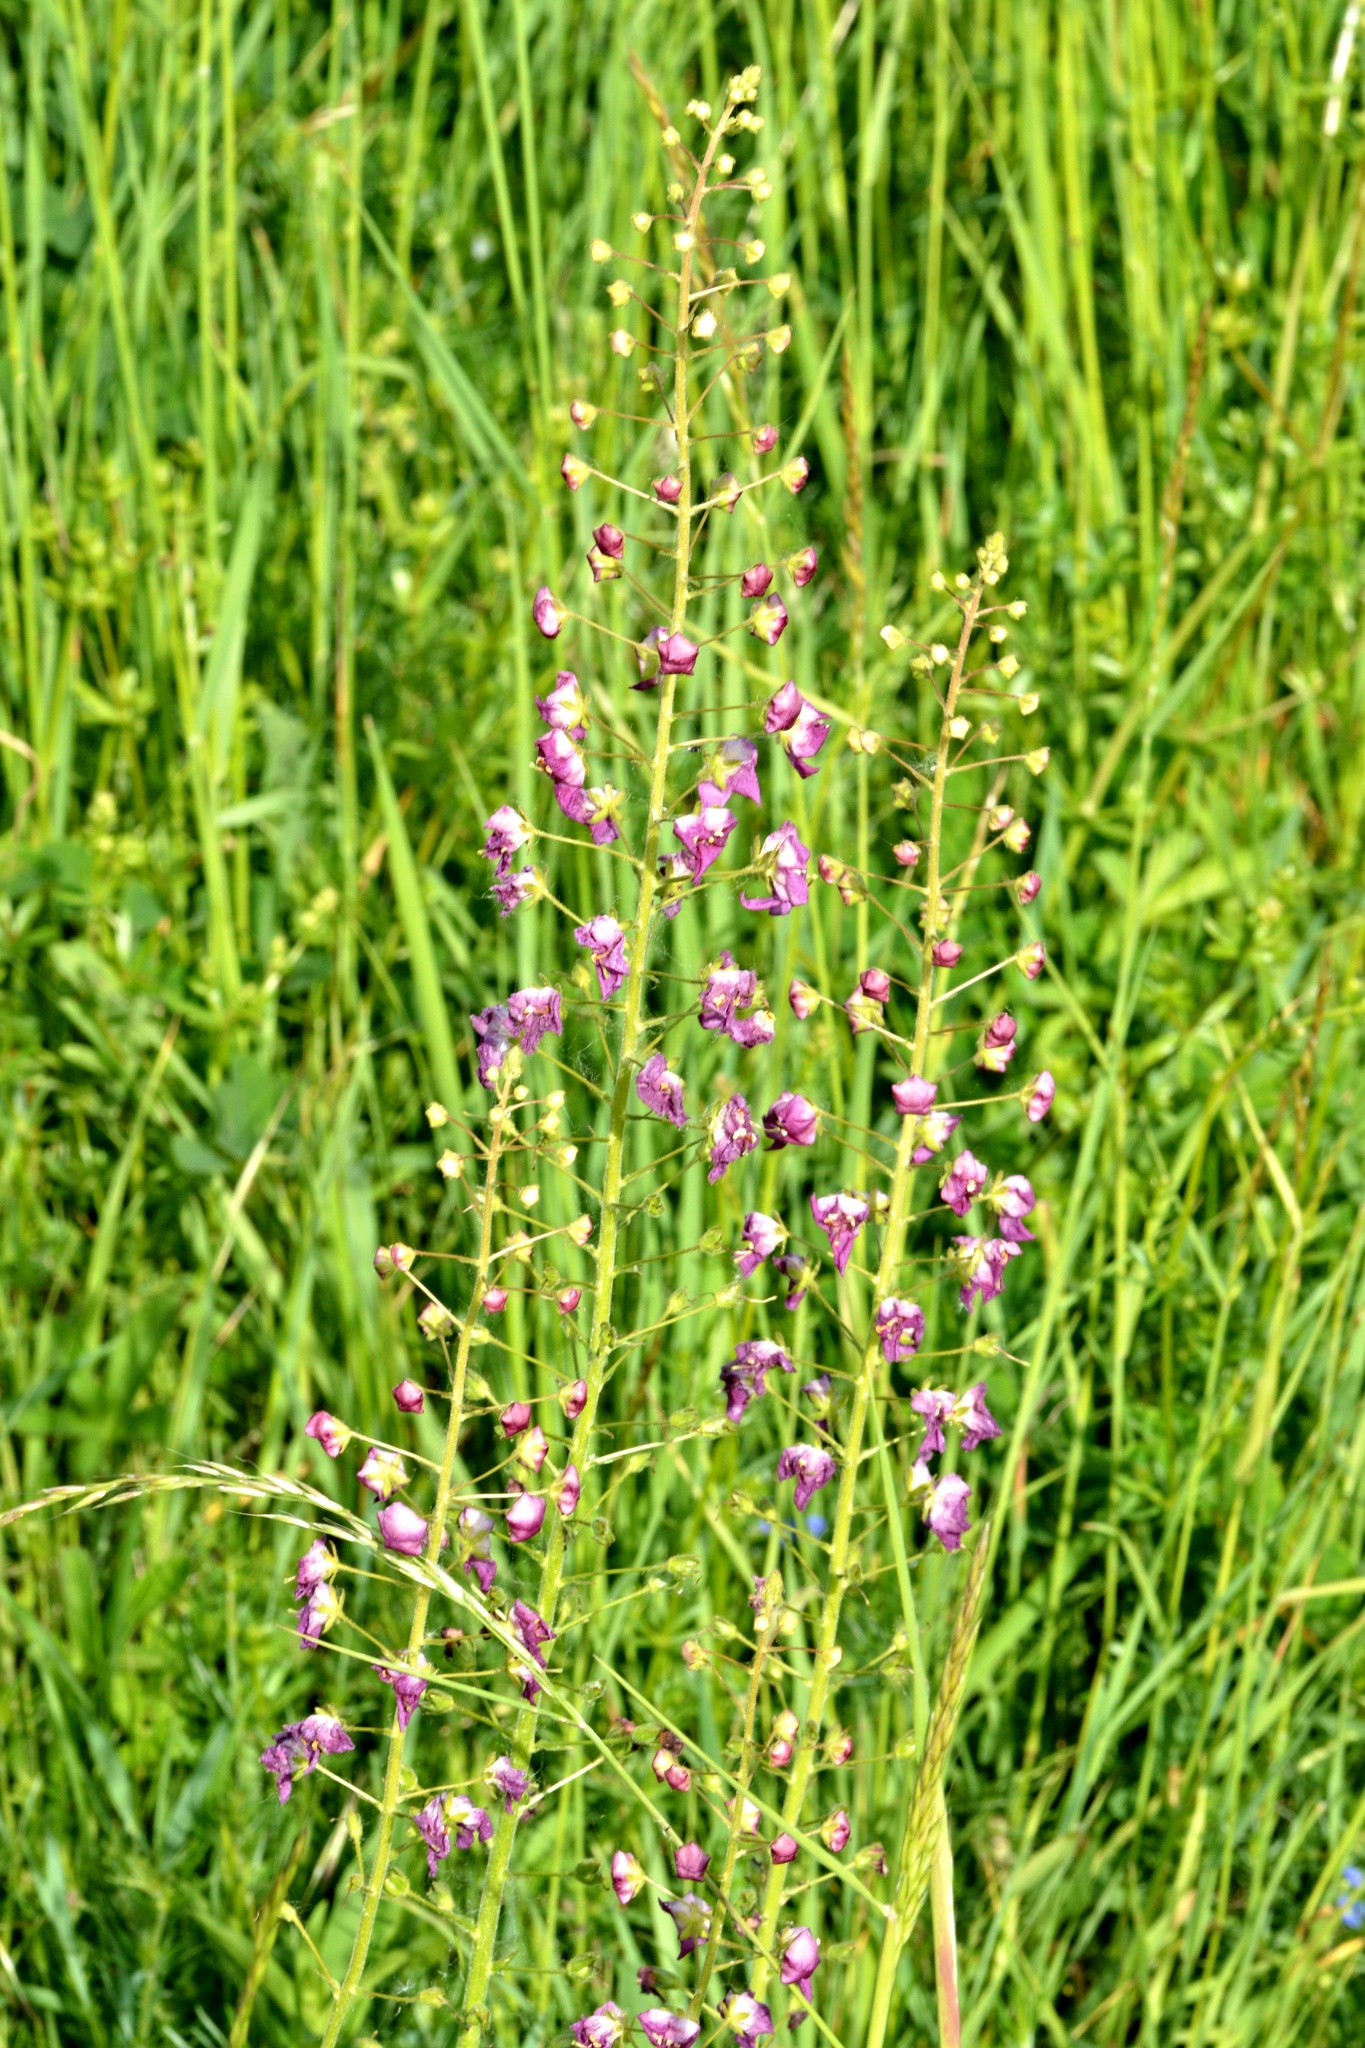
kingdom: Plantae
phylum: Tracheophyta
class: Magnoliopsida
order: Lamiales
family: Scrophulariaceae
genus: Verbascum
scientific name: Verbascum phoeniceum
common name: Purple mullein
